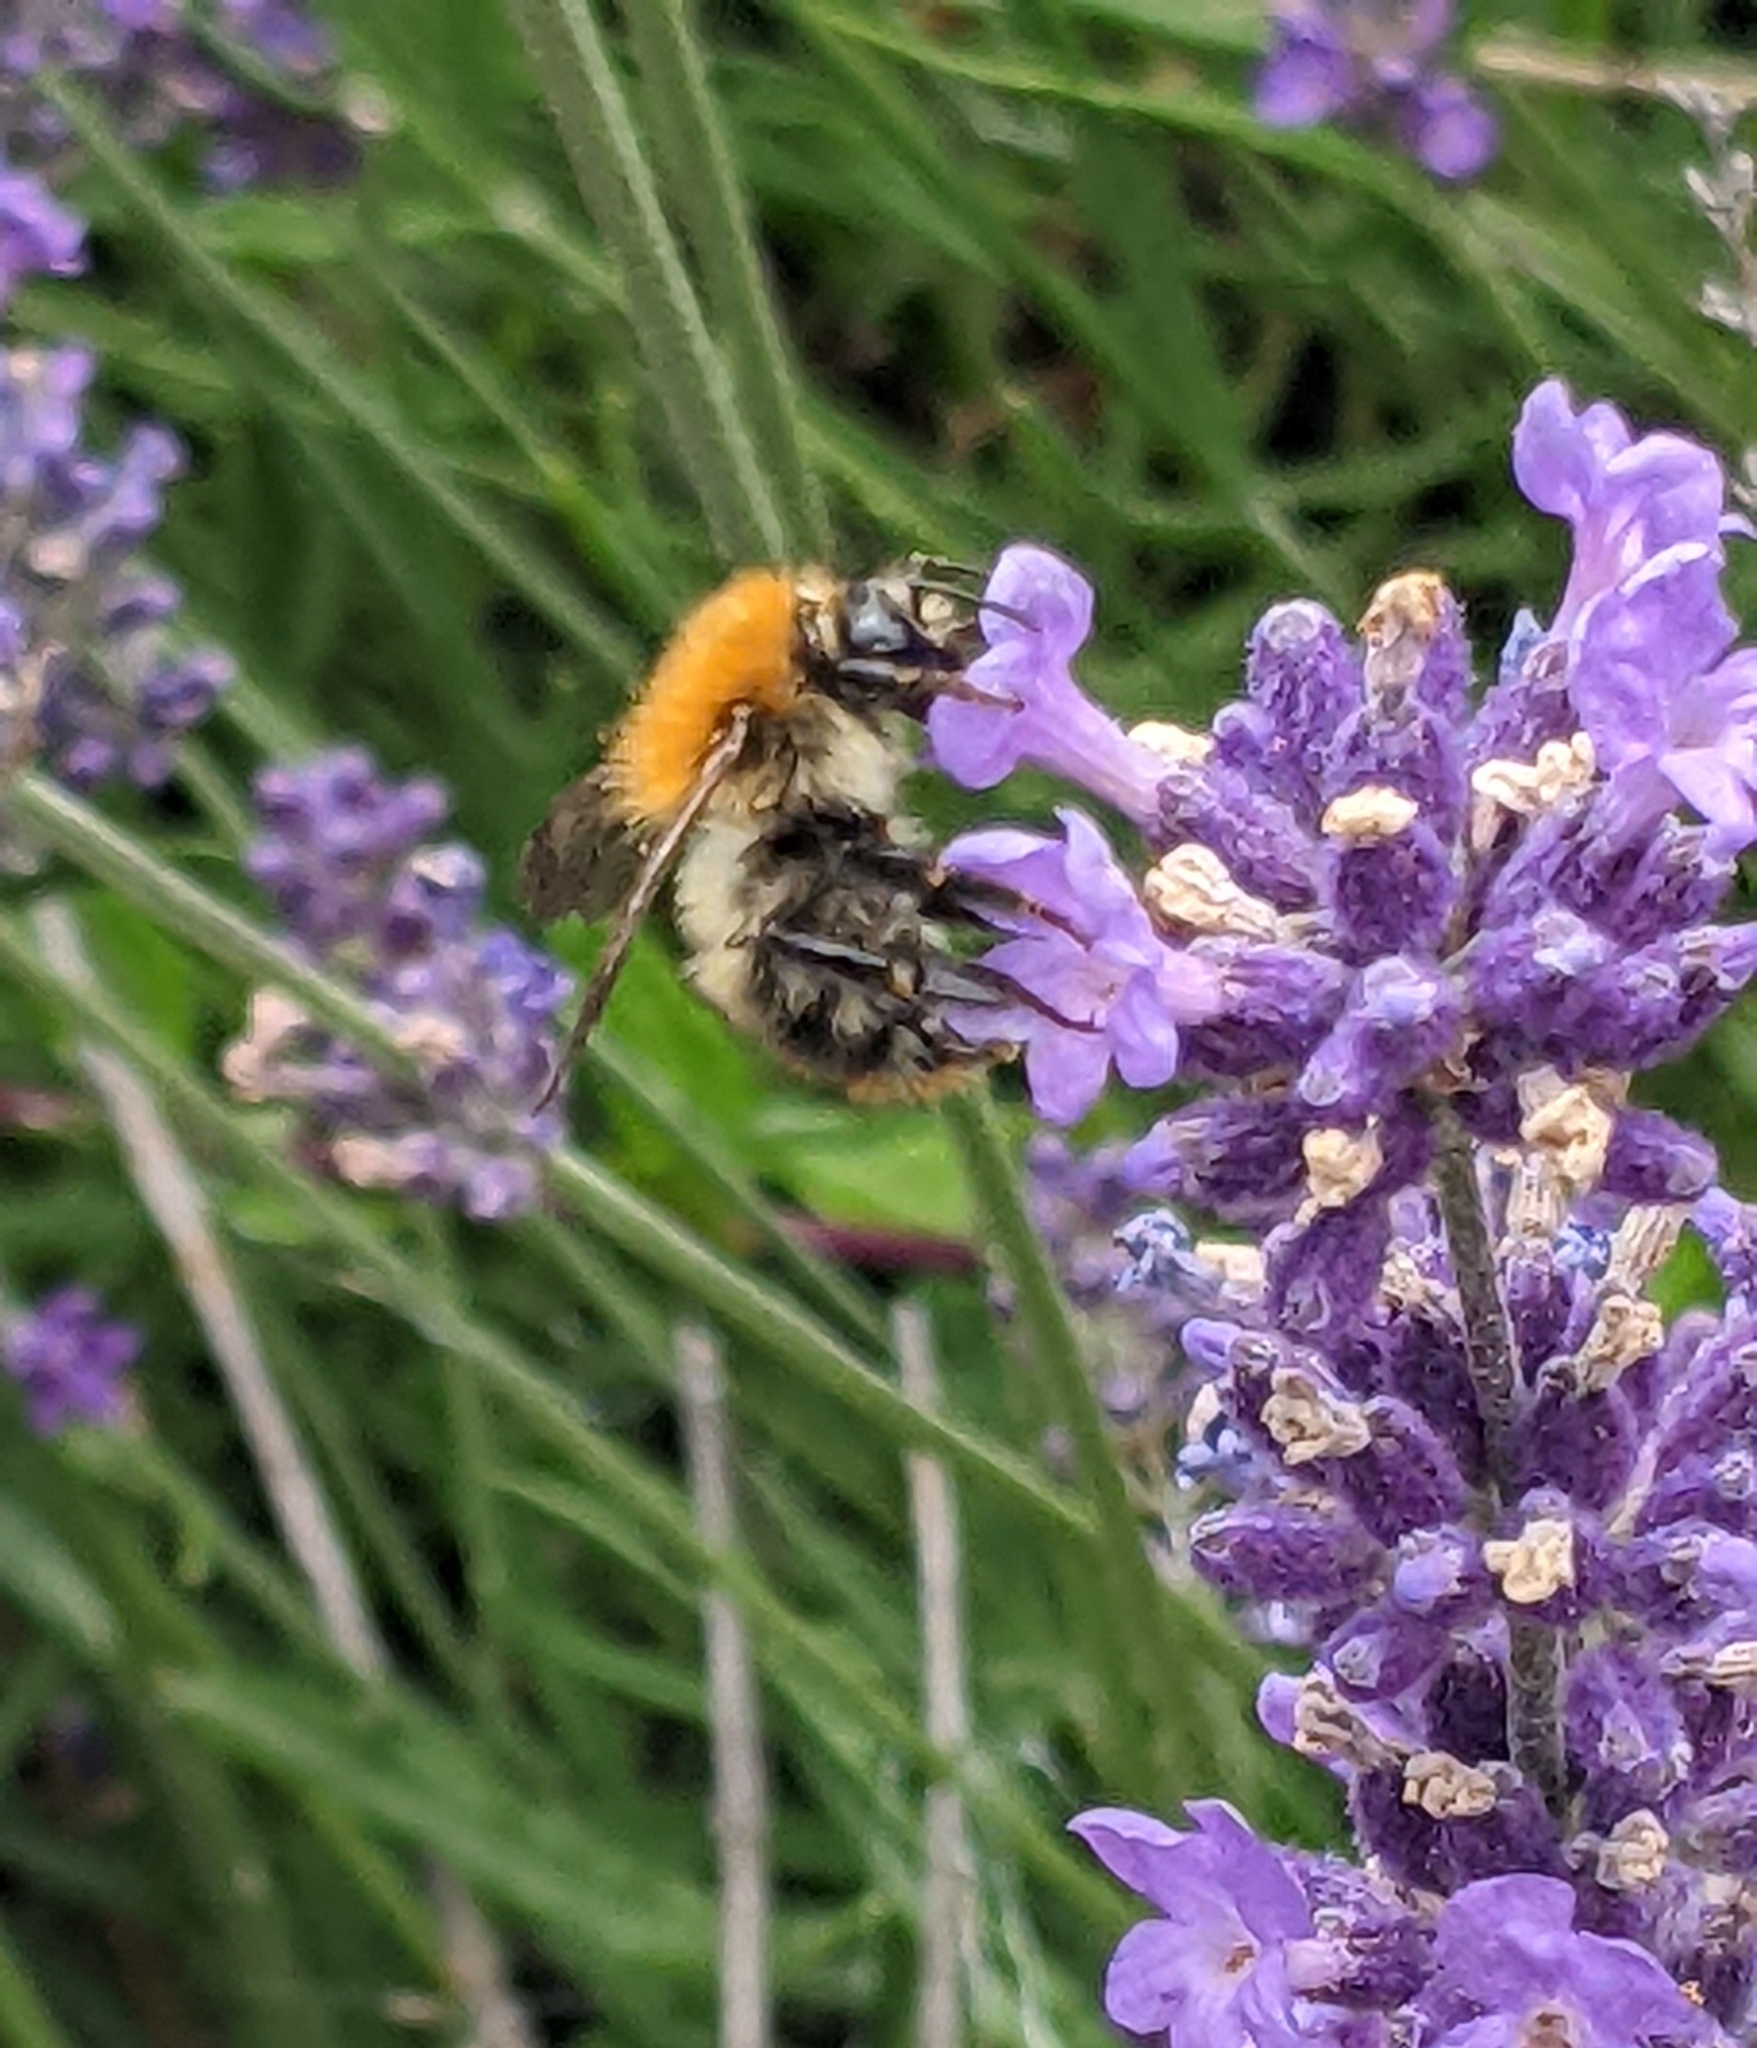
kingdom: Animalia
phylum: Arthropoda
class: Insecta
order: Hymenoptera
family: Apidae
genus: Bombus
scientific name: Bombus pascuorum
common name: Common carder bee
